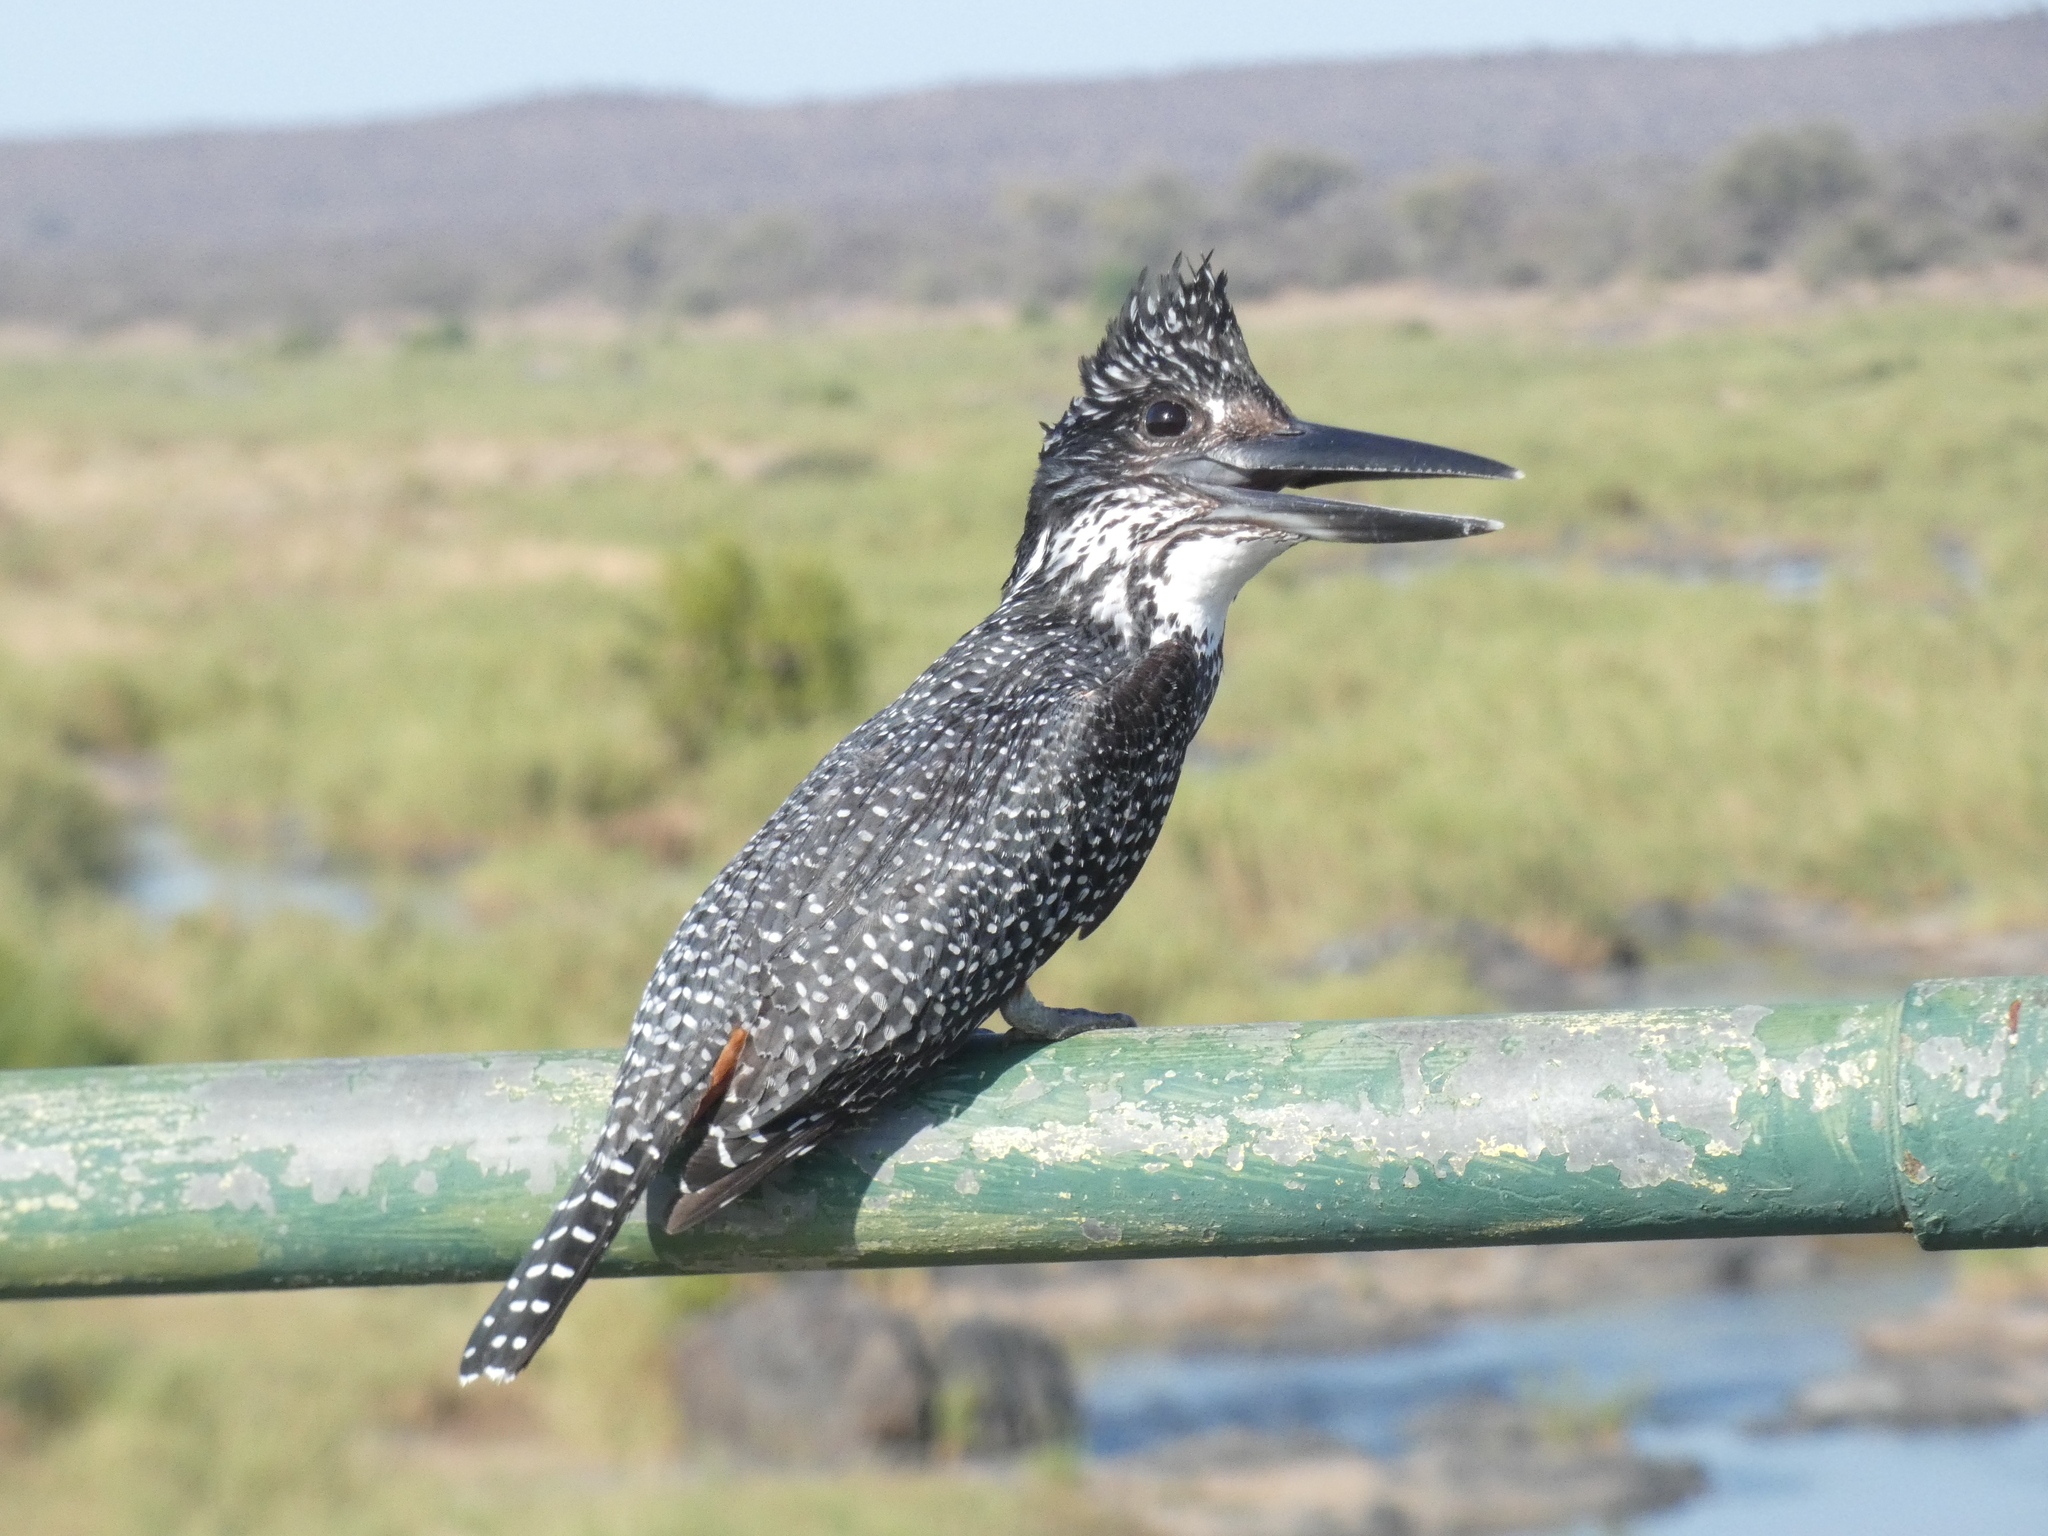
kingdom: Animalia
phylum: Chordata
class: Aves
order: Coraciiformes
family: Alcedinidae
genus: Megaceryle
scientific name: Megaceryle maxima
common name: Giant kingfisher
